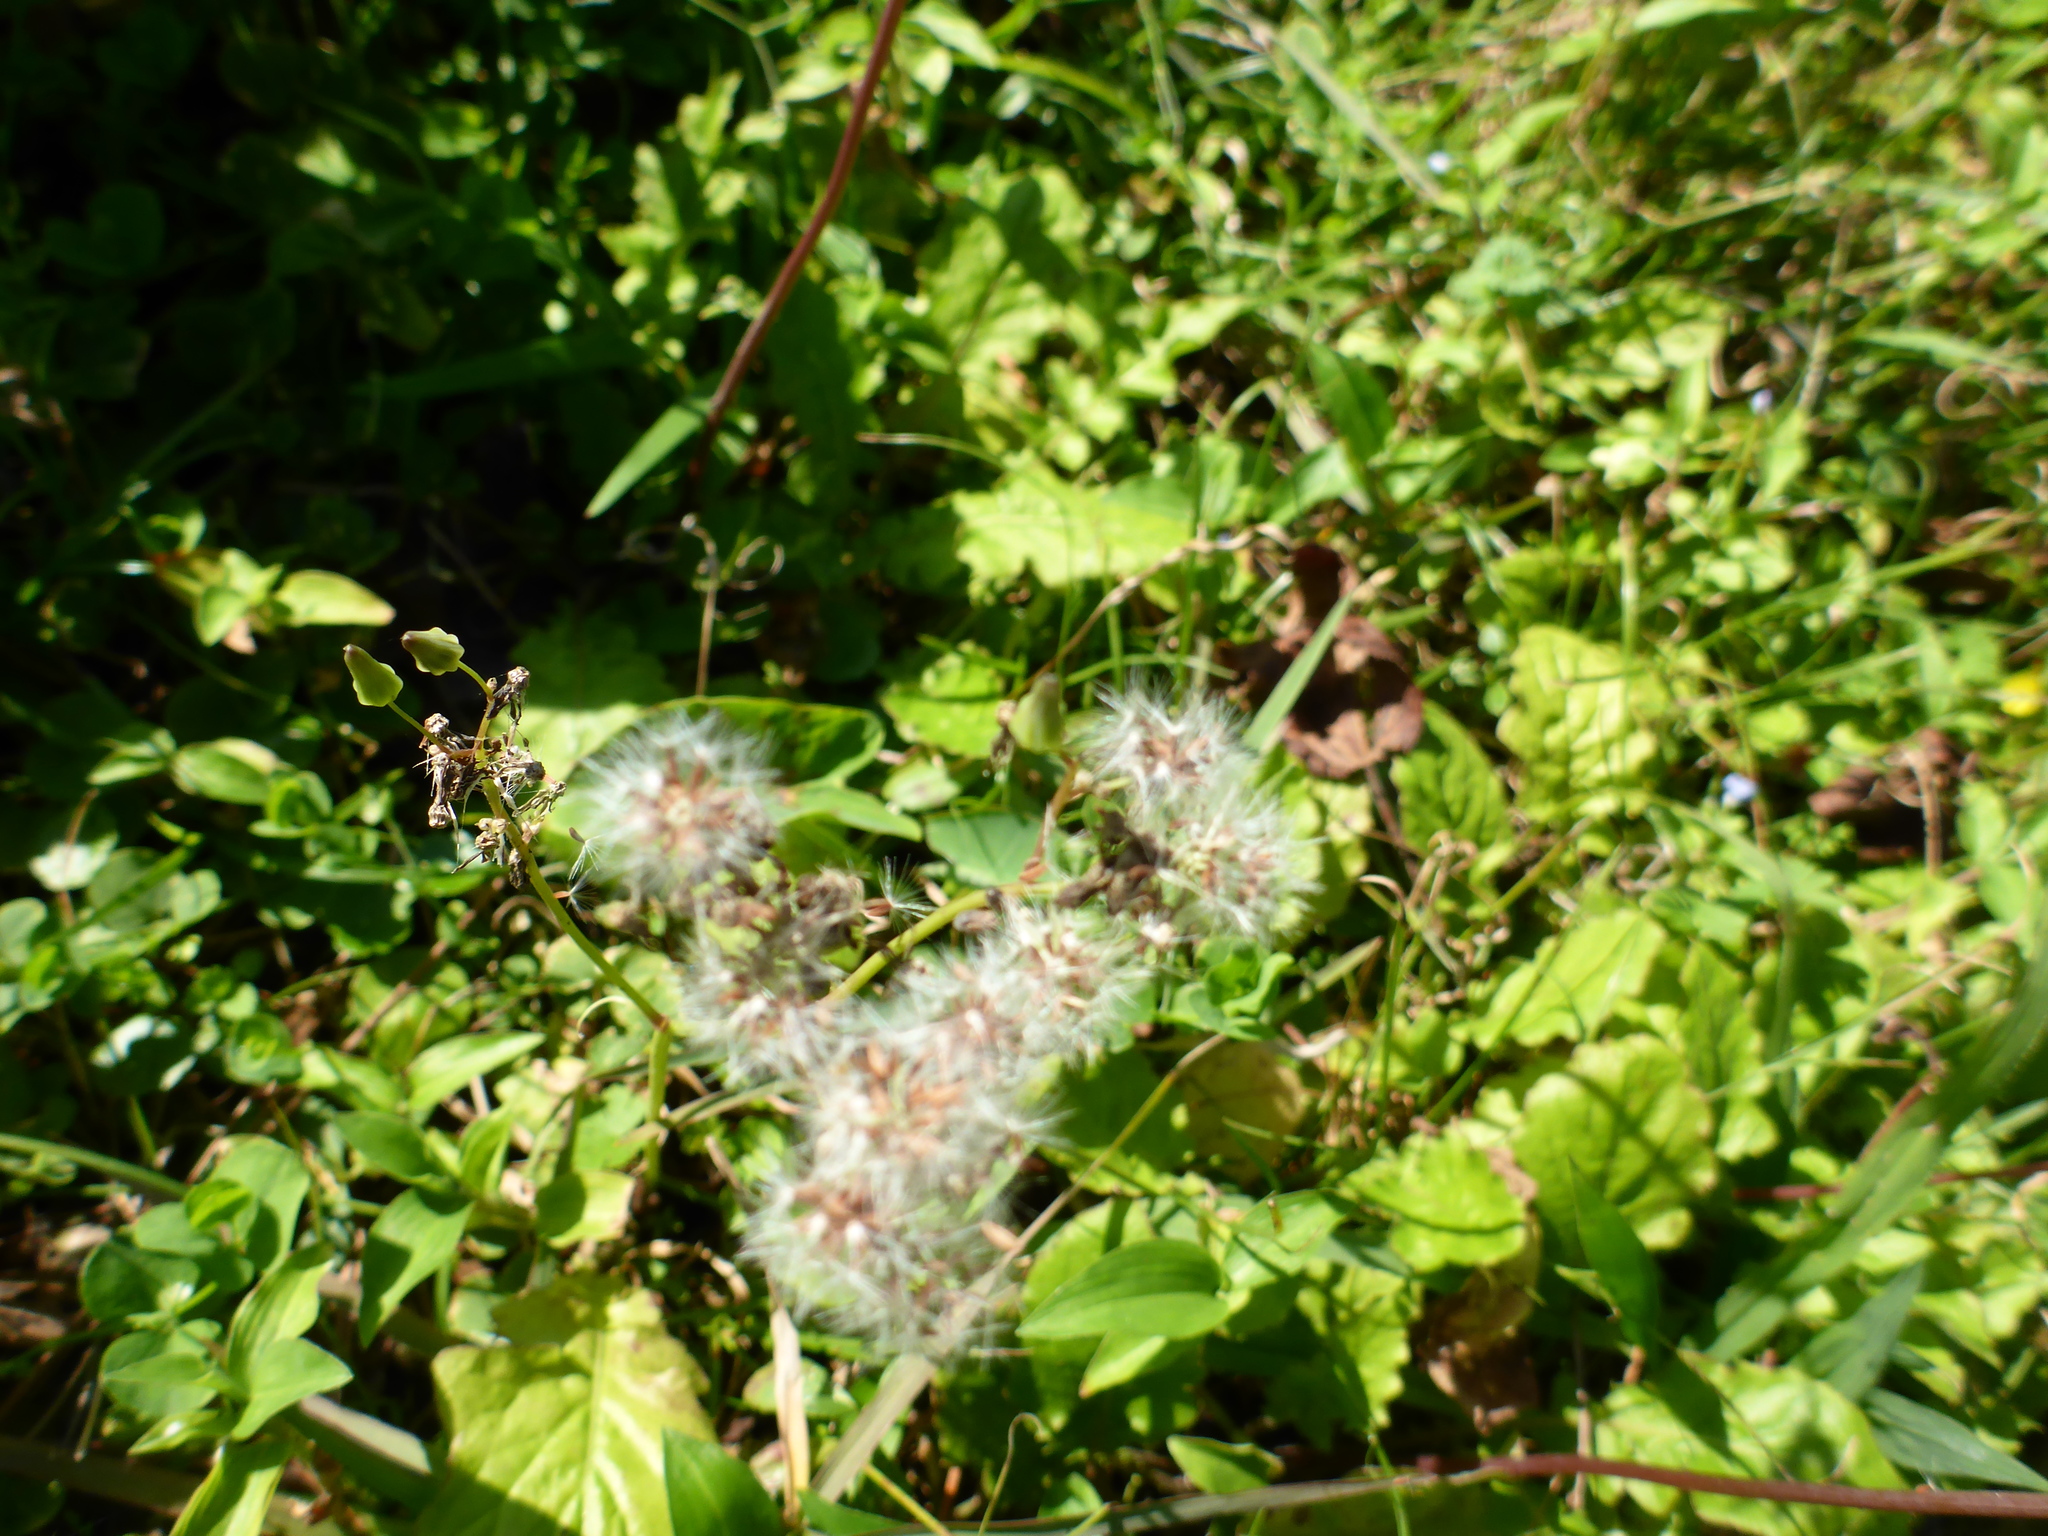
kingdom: Plantae
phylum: Tracheophyta
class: Magnoliopsida
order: Asterales
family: Asteraceae
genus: Youngia
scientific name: Youngia japonica
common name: Oriental false hawksbeard
